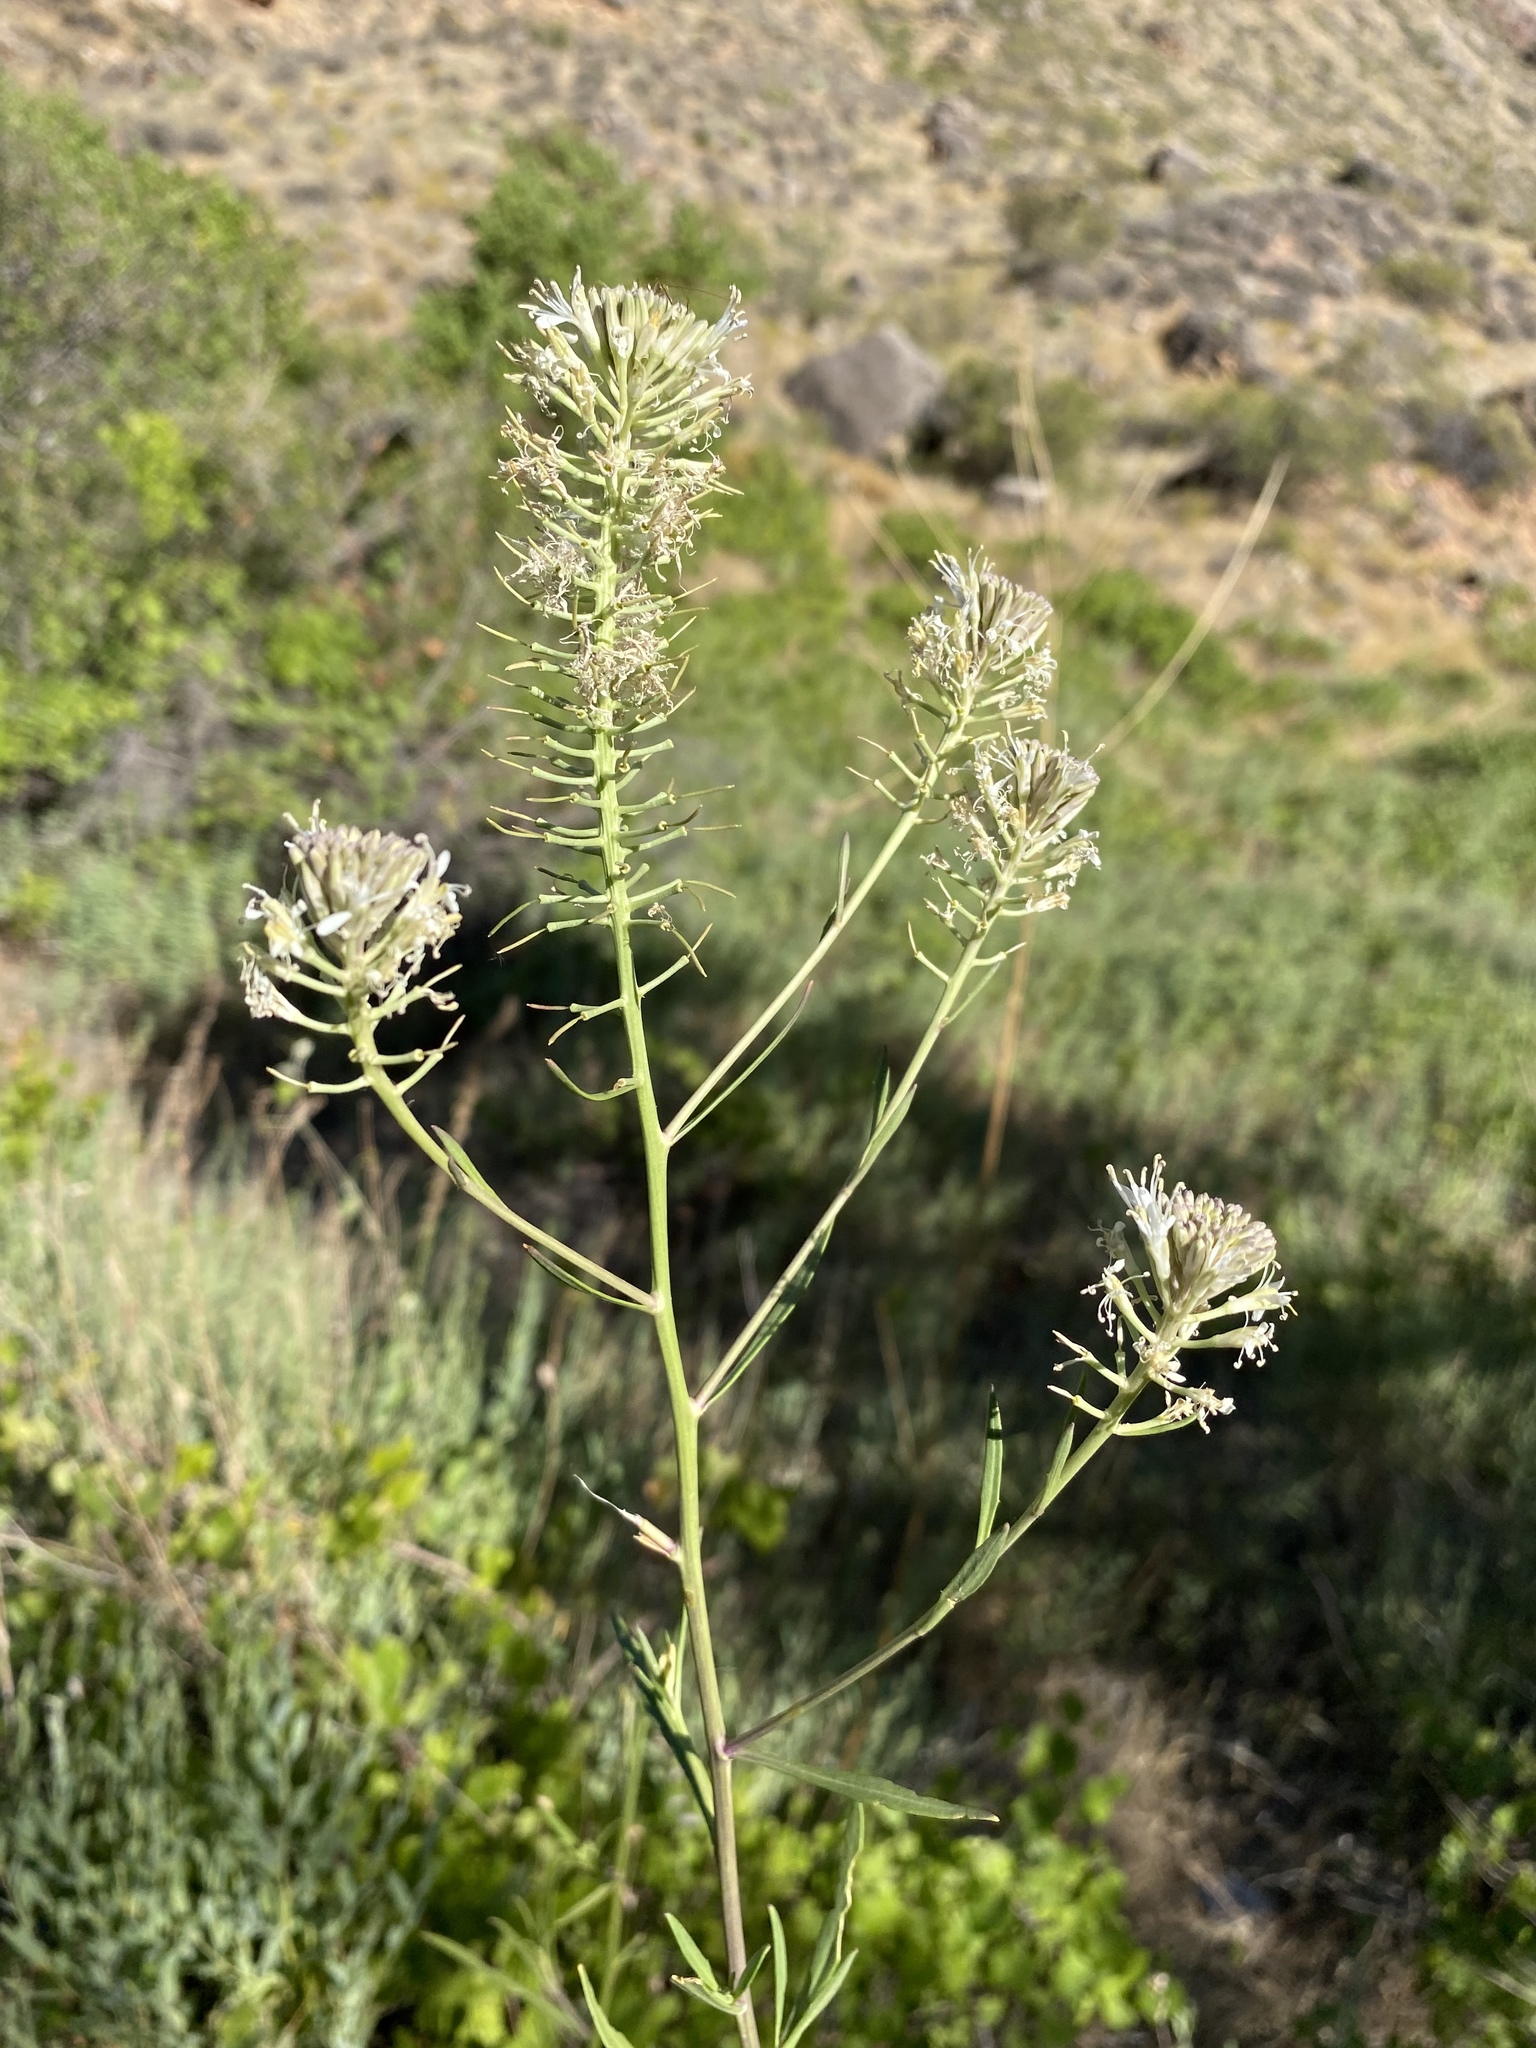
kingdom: Plantae
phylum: Tracheophyta
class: Magnoliopsida
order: Brassicales
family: Brassicaceae
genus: Thelypodium
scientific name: Thelypodium integrifolium
